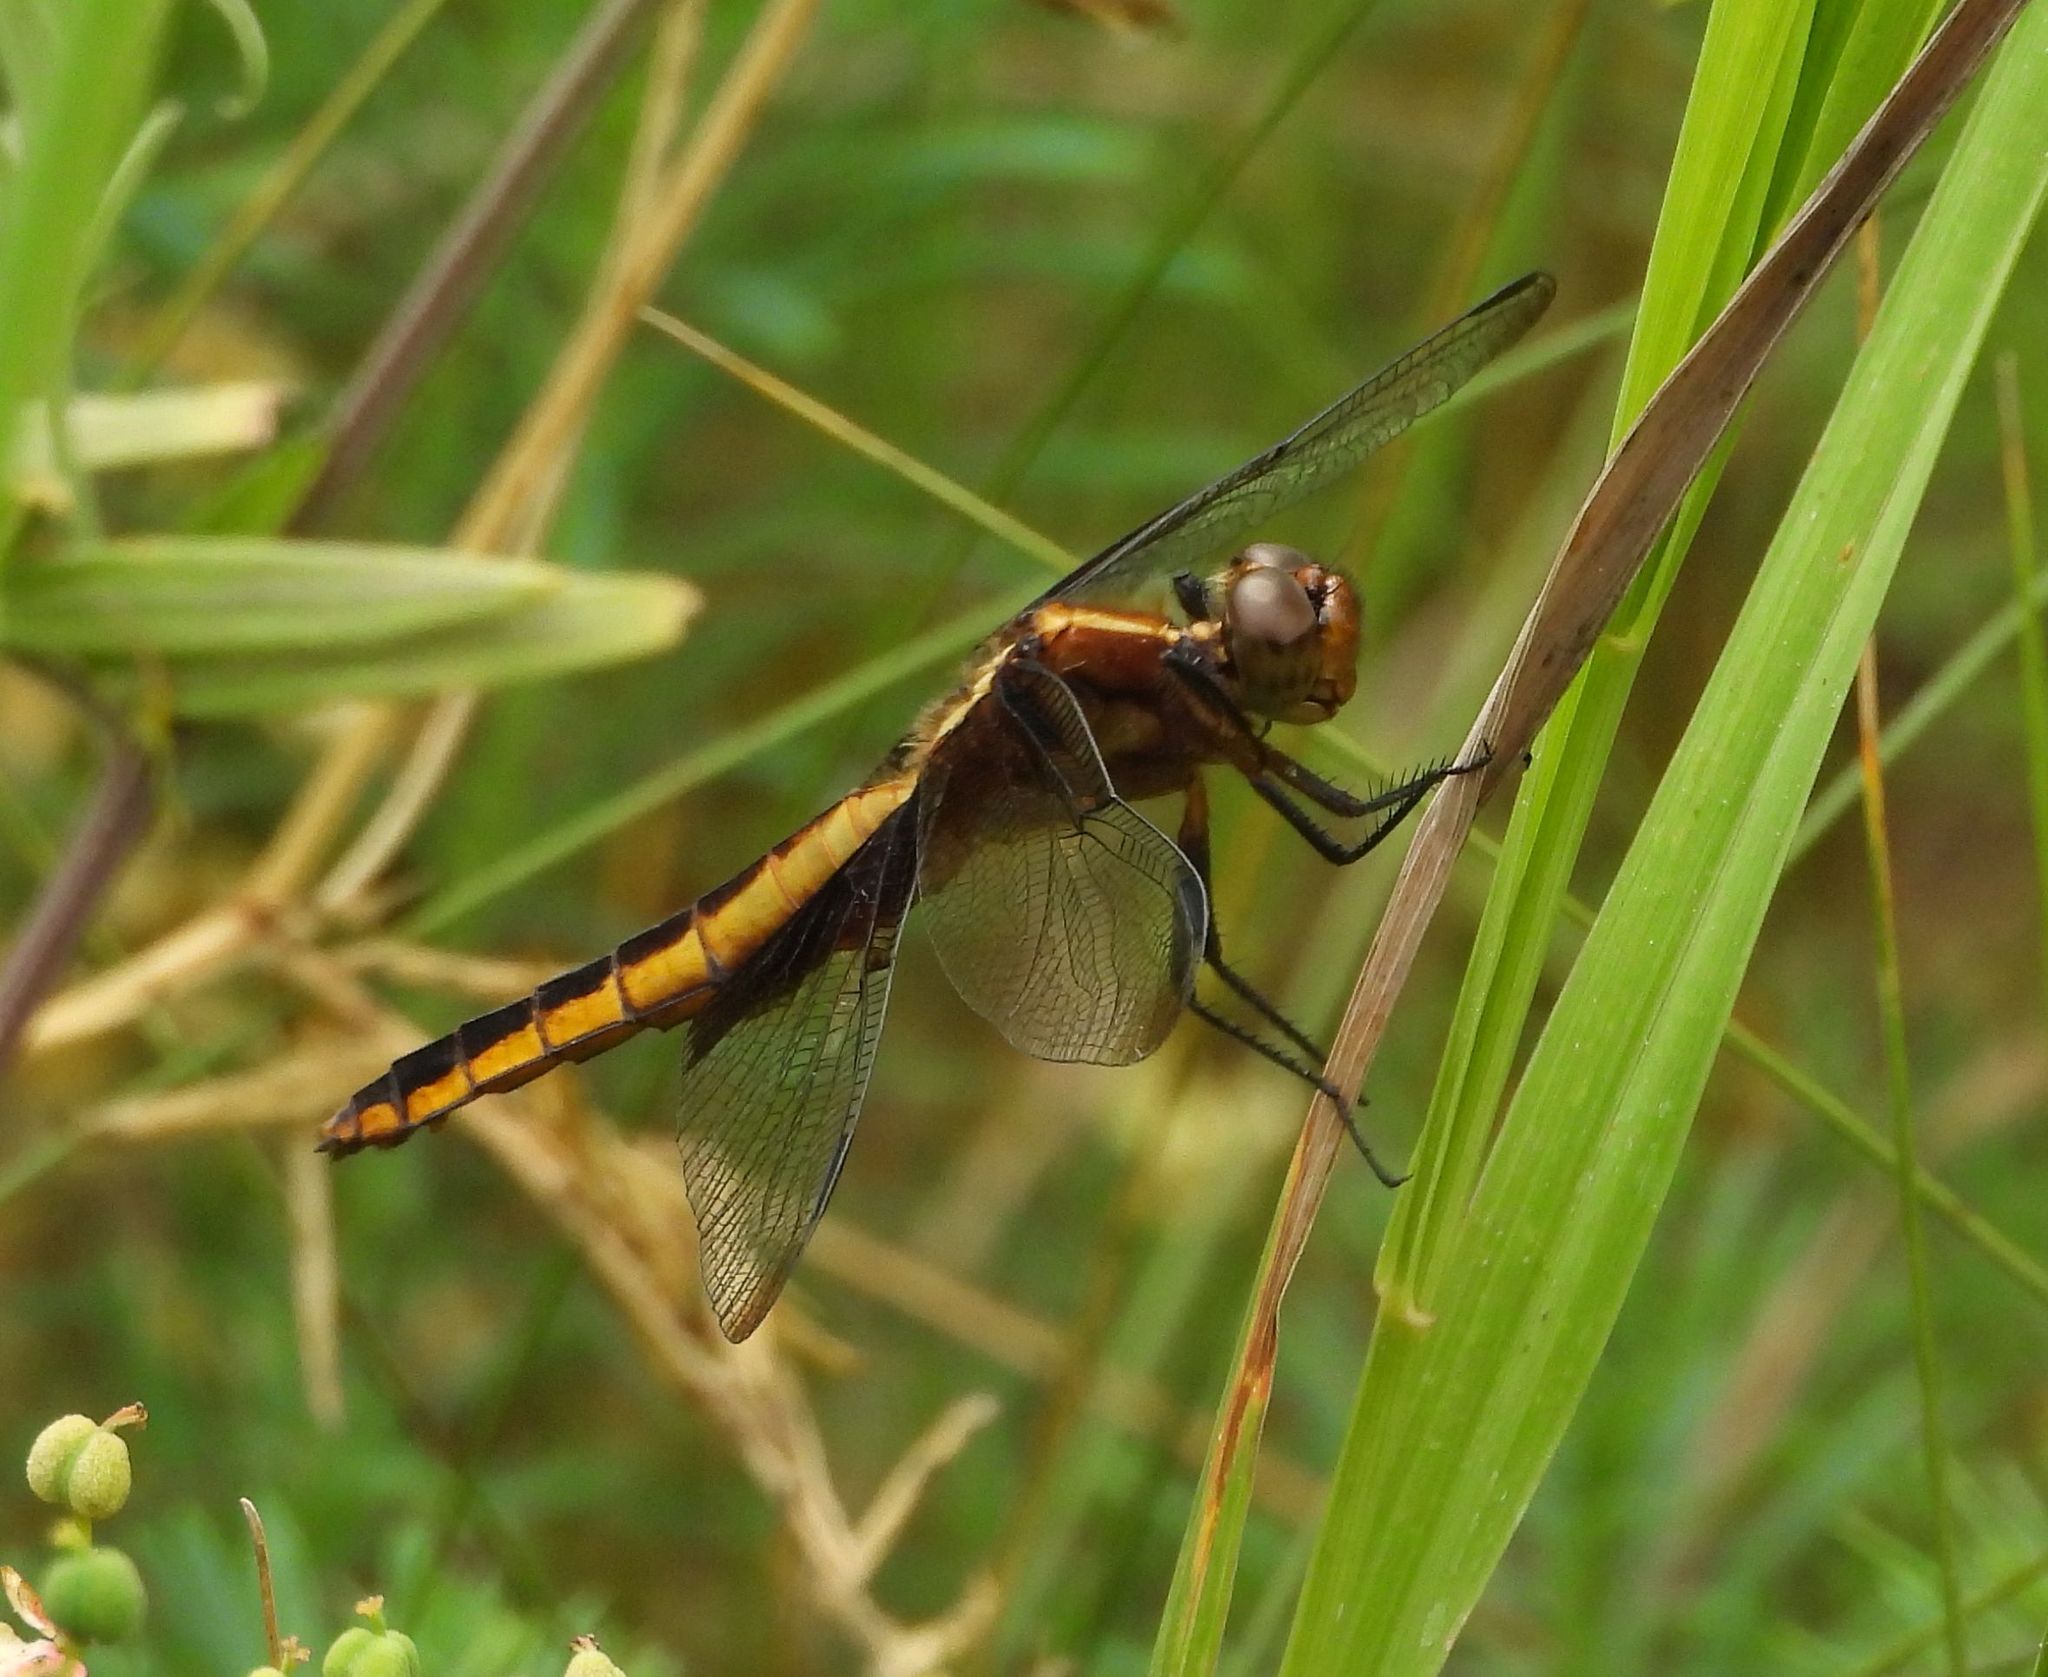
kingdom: Animalia
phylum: Arthropoda
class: Insecta
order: Odonata
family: Libellulidae
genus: Libellula
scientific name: Libellula luctuosa
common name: Widow skimmer
